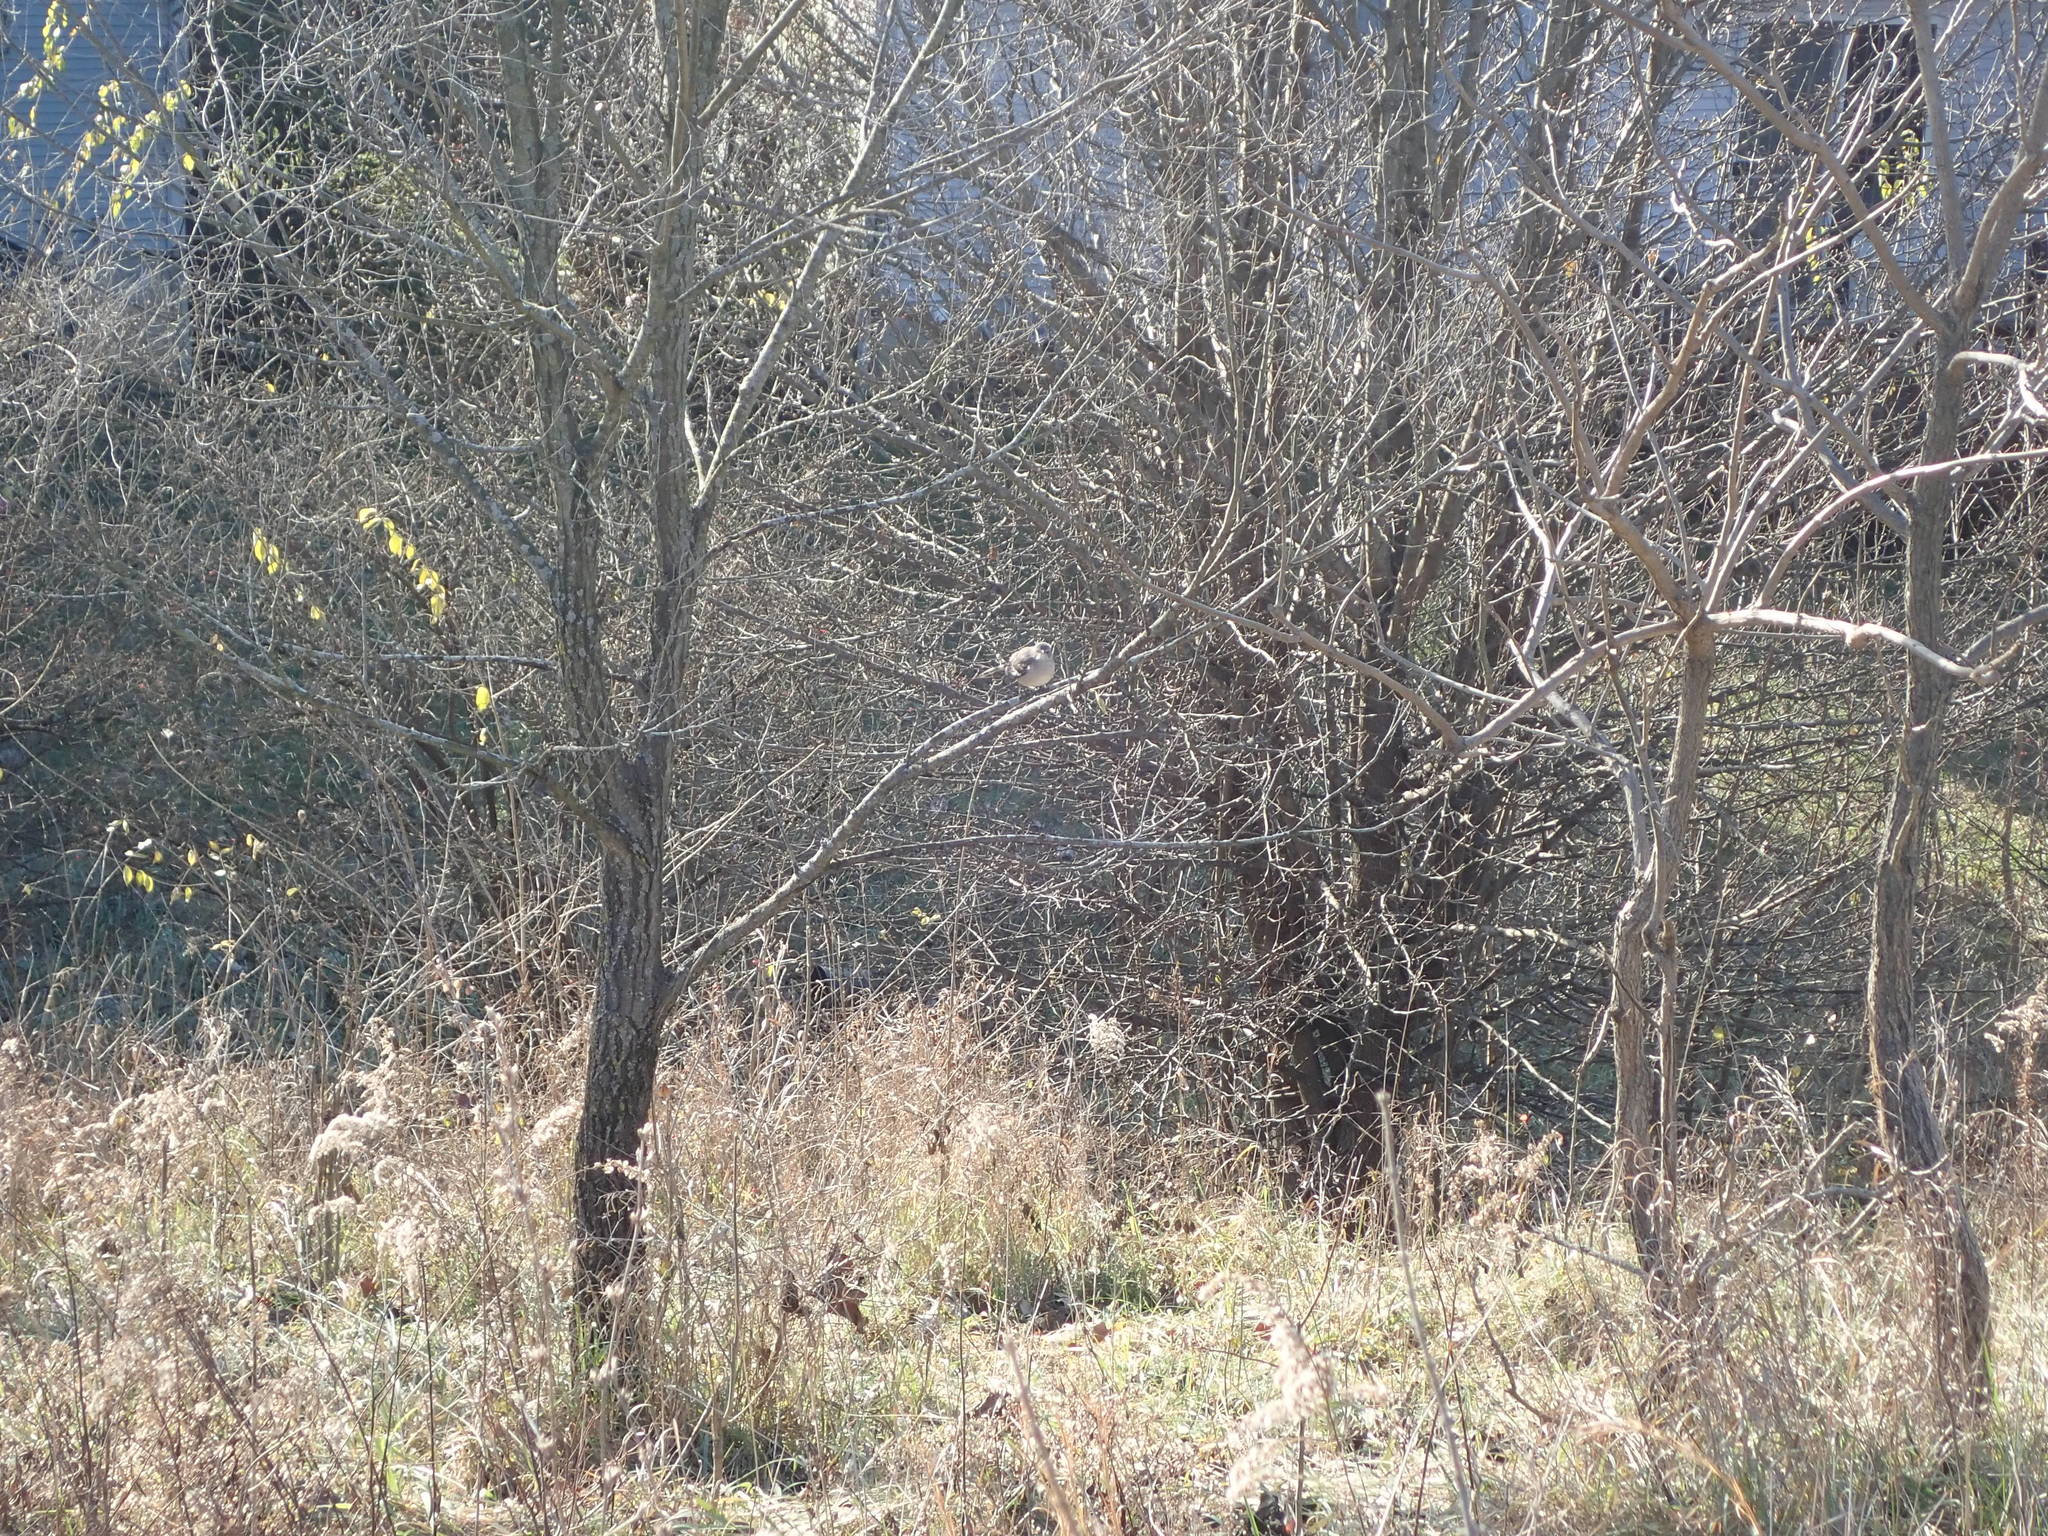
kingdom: Animalia
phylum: Chordata
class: Aves
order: Passeriformes
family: Mimidae
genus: Mimus
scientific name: Mimus polyglottos
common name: Northern mockingbird
